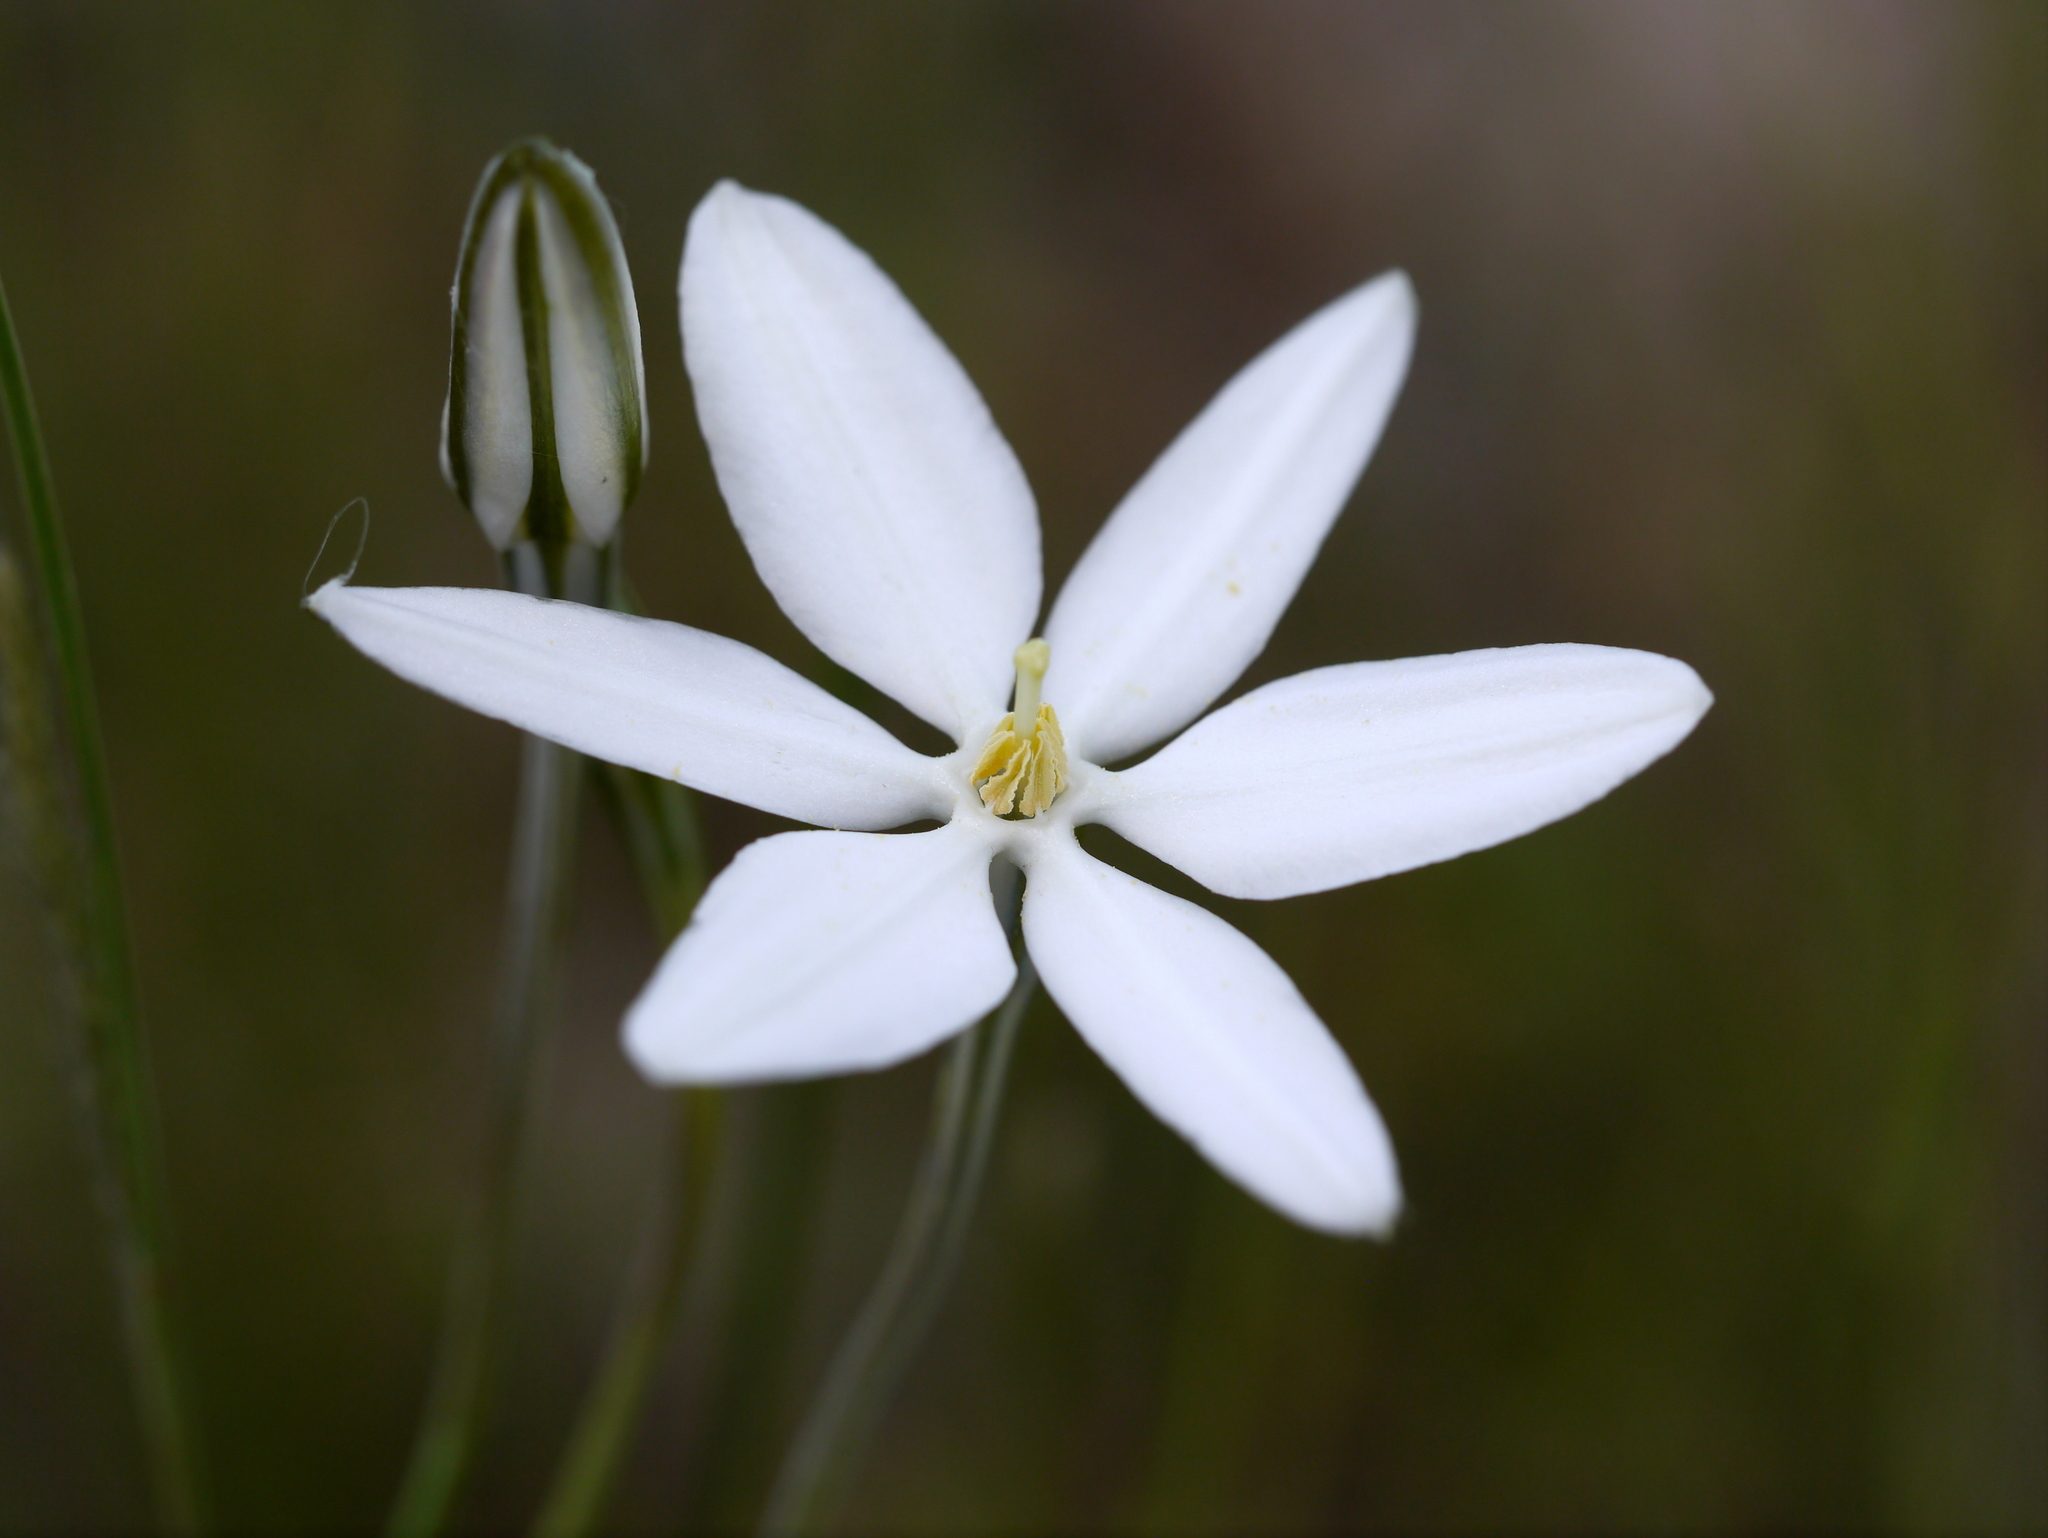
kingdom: Plantae
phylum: Tracheophyta
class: Liliopsida
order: Asparagales
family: Asparagaceae
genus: Milla
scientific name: Milla biflora
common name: Mexican-star
